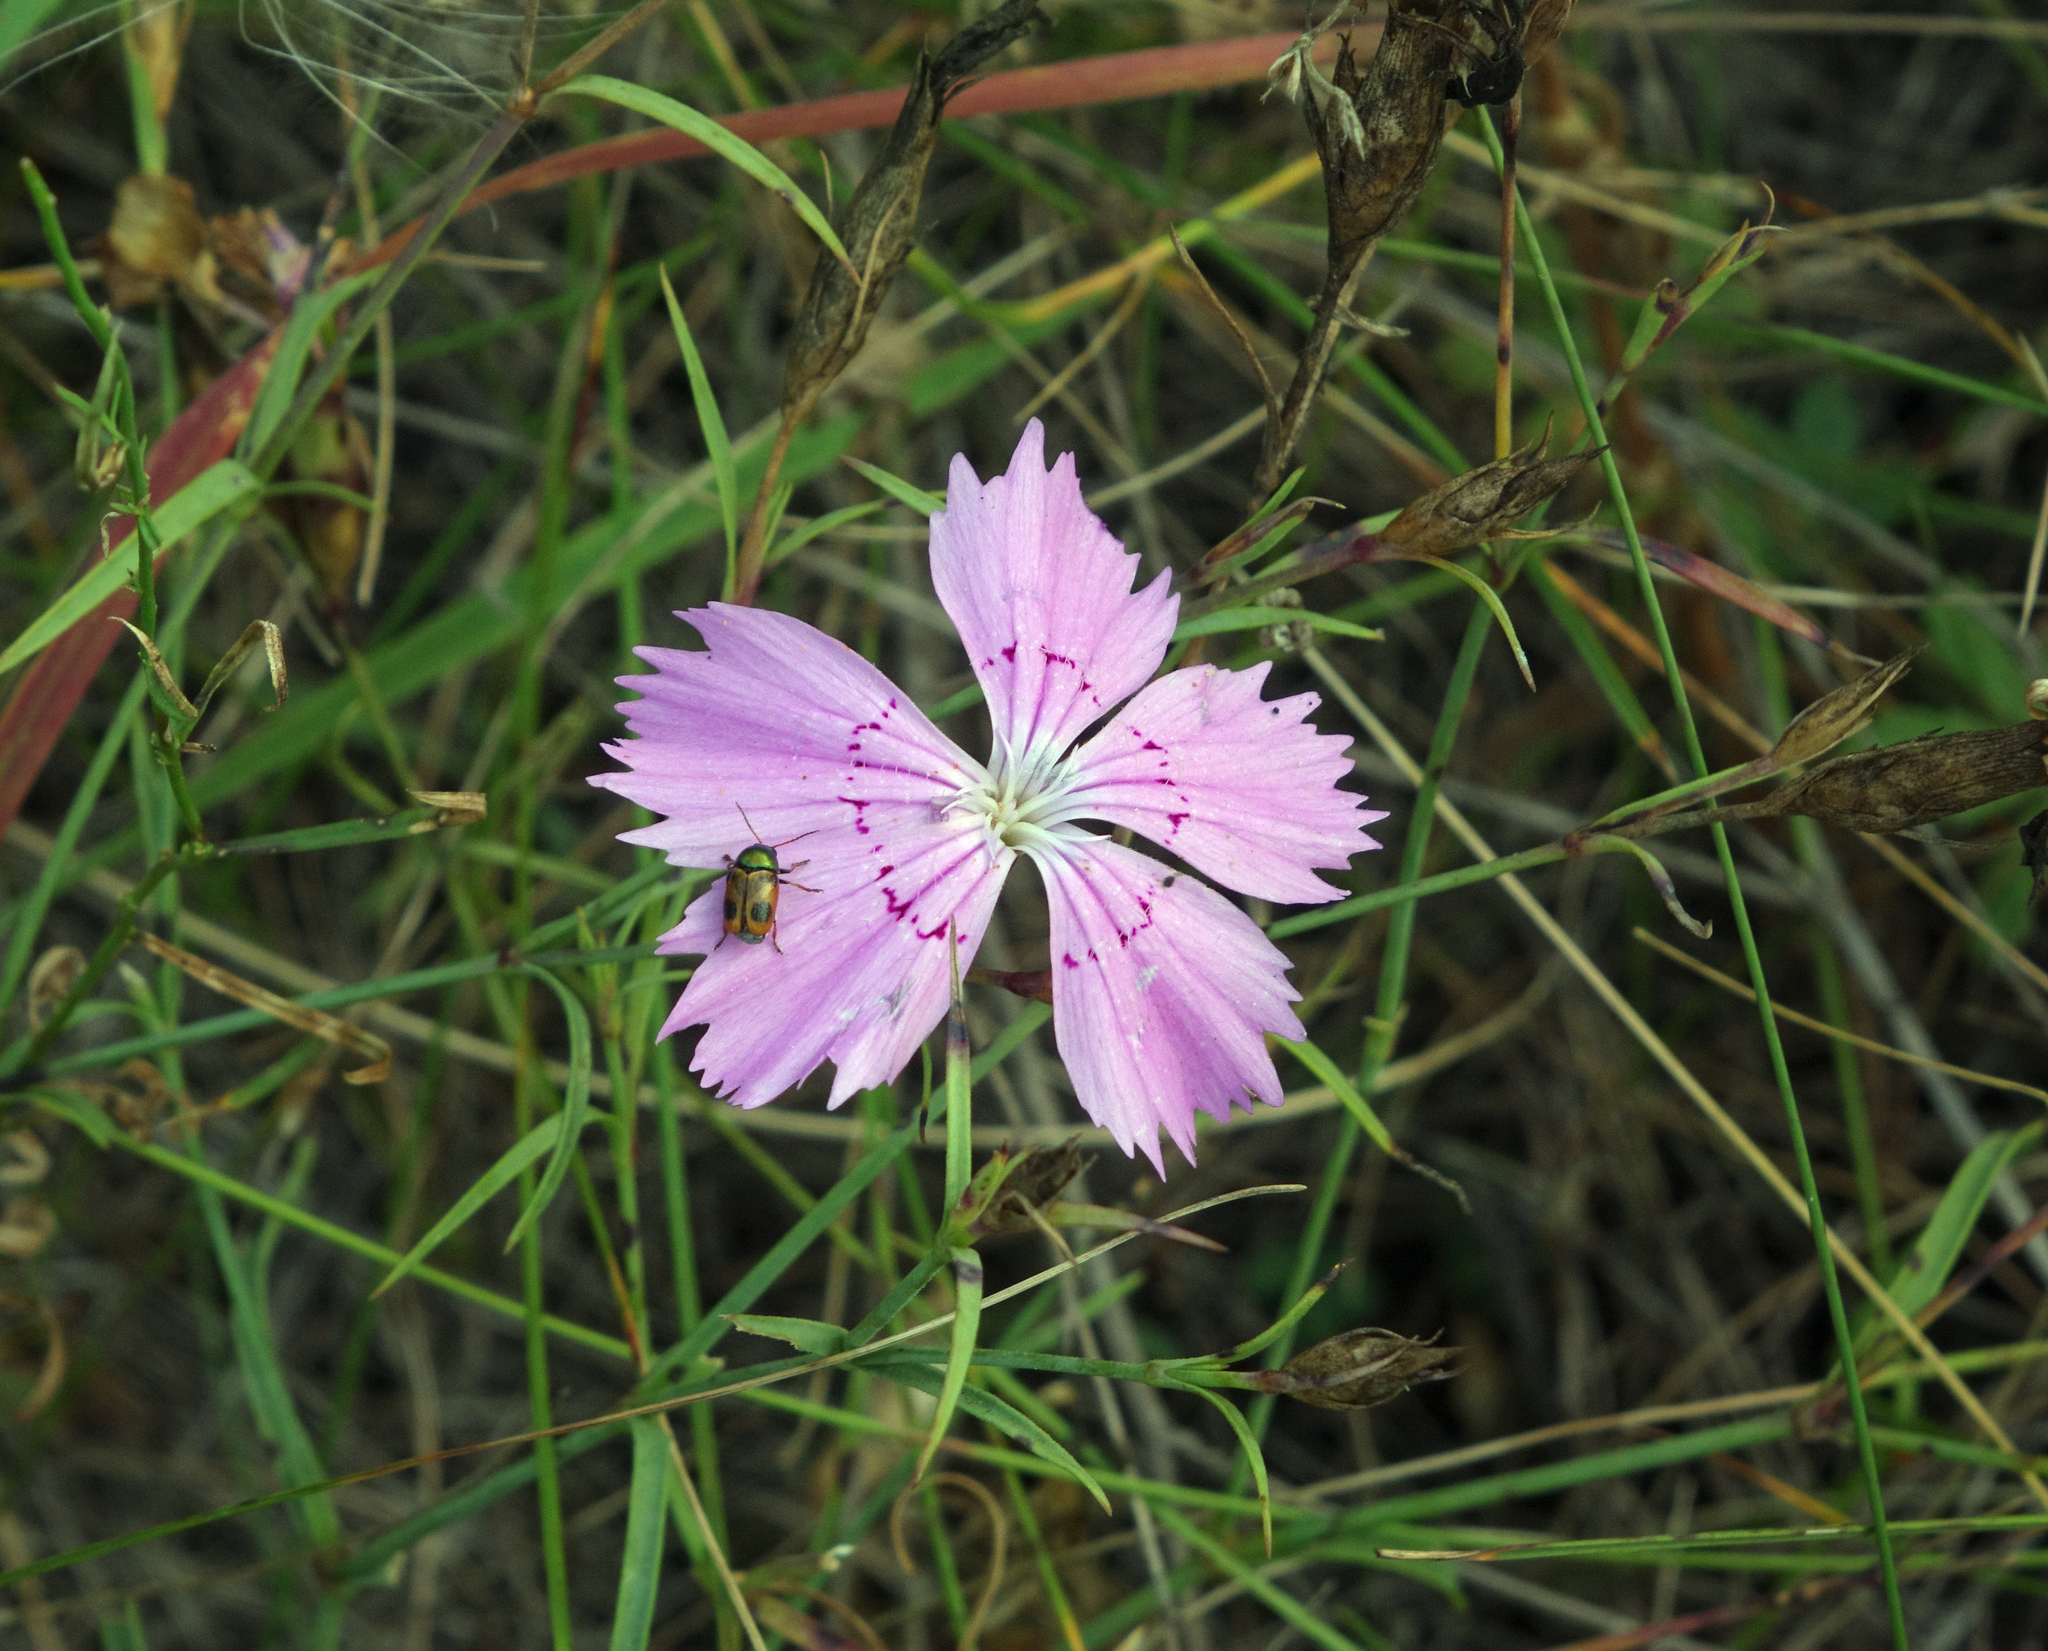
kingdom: Animalia
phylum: Arthropoda
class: Insecta
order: Coleoptera
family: Chrysomelidae
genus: Cryptocephalus
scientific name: Cryptocephalus laetus
